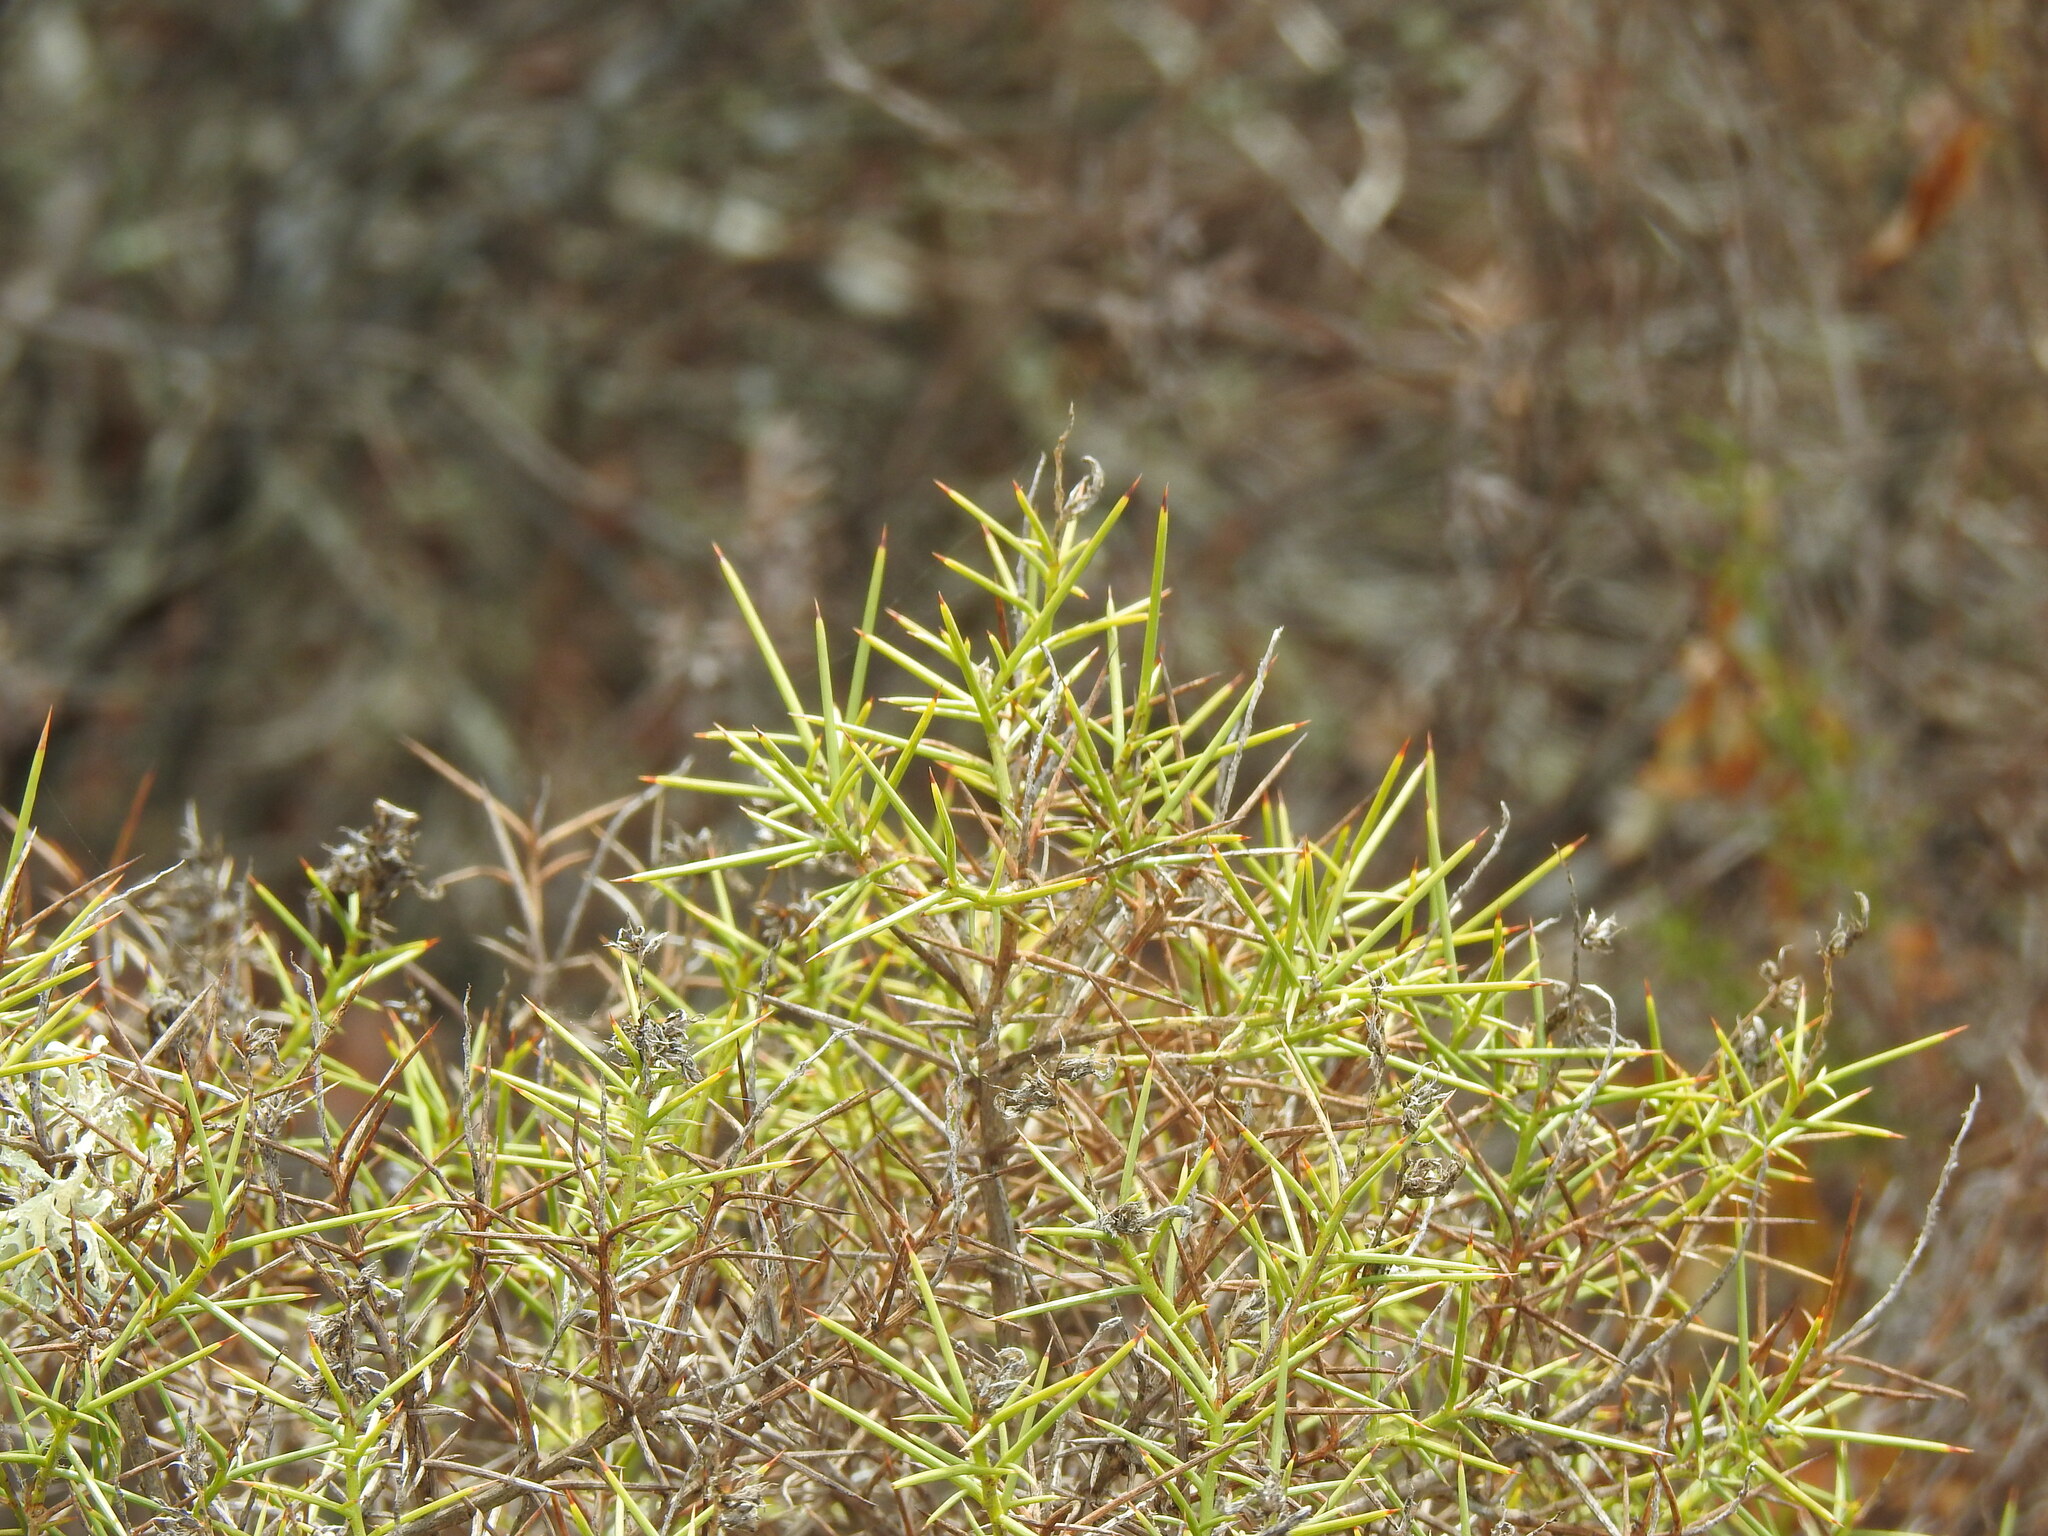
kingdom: Plantae
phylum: Tracheophyta
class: Magnoliopsida
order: Fabales
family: Fabaceae
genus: Genista
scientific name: Genista hirsuta
